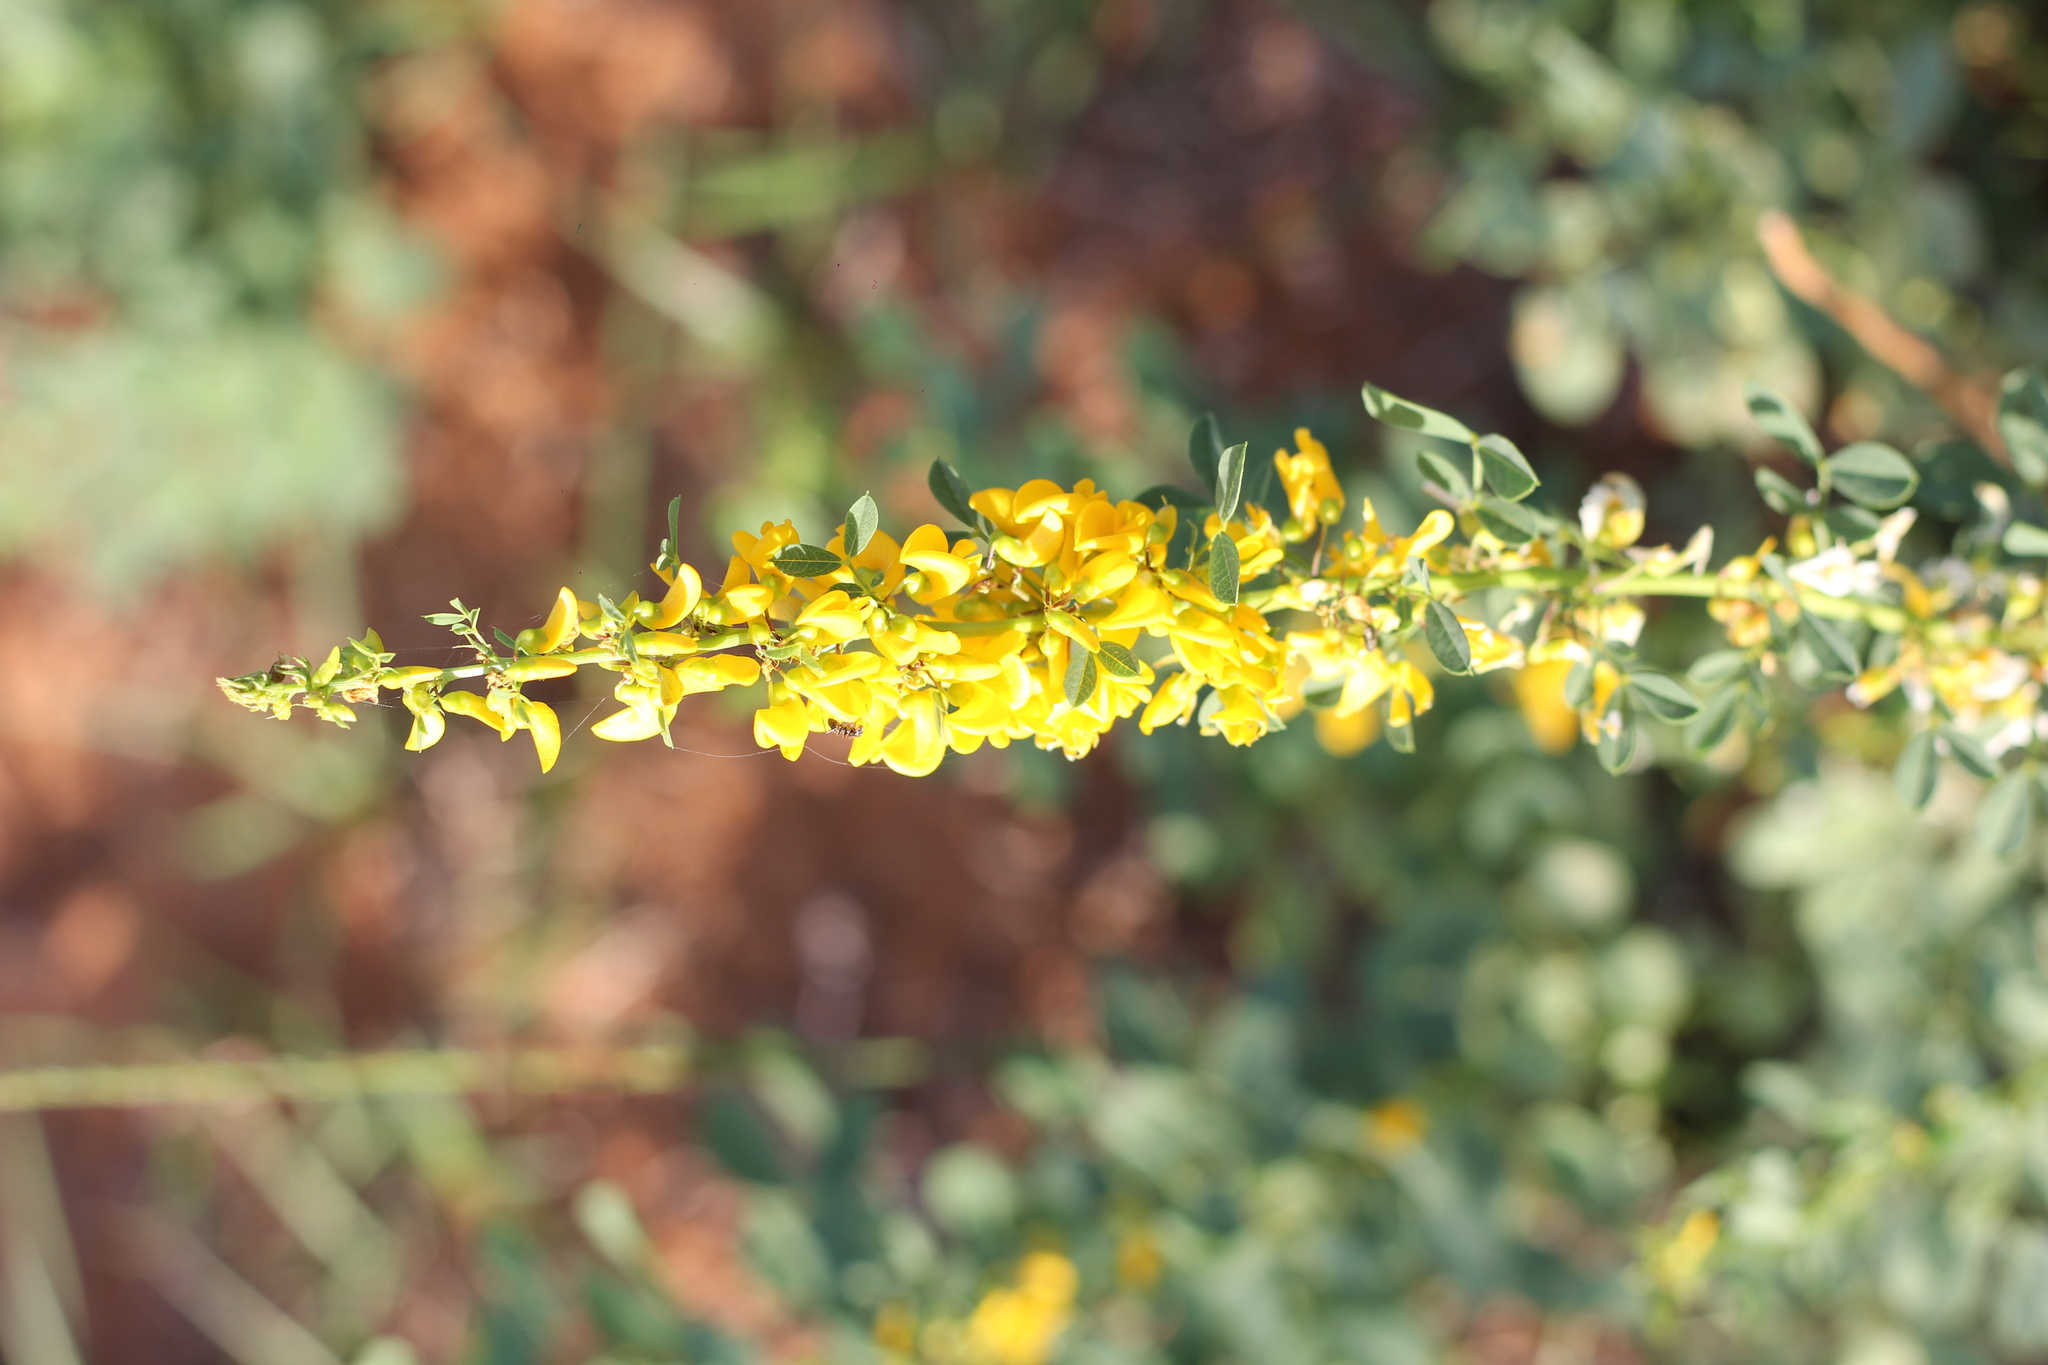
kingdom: Plantae
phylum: Tracheophyta
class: Magnoliopsida
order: Fabales
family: Fabaceae
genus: Poiretia
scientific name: Poiretia tetraphylla
